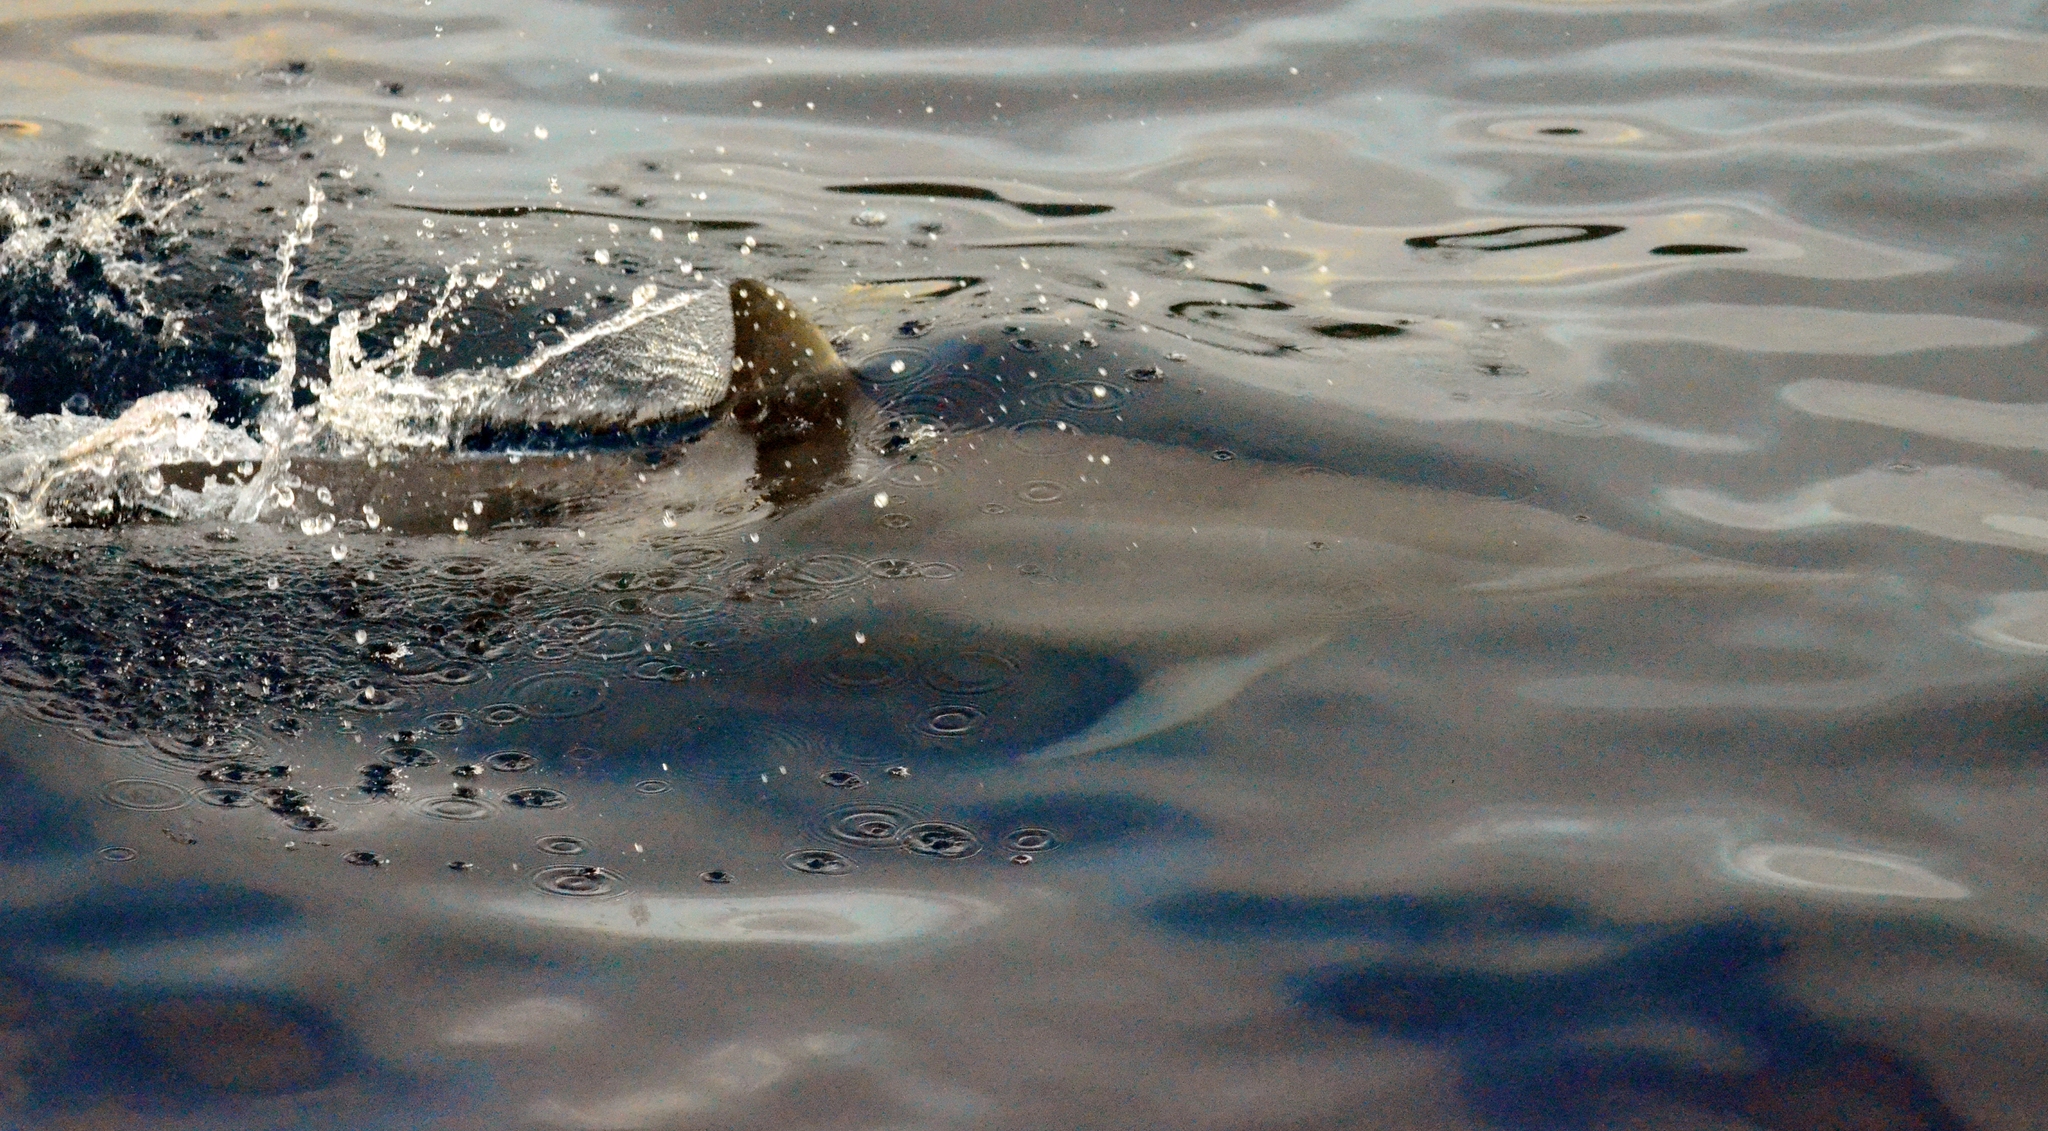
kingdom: Animalia
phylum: Chordata
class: Mammalia
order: Cetacea
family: Delphinidae
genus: Stenella
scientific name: Stenella longirostris
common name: Spinner dolphin
